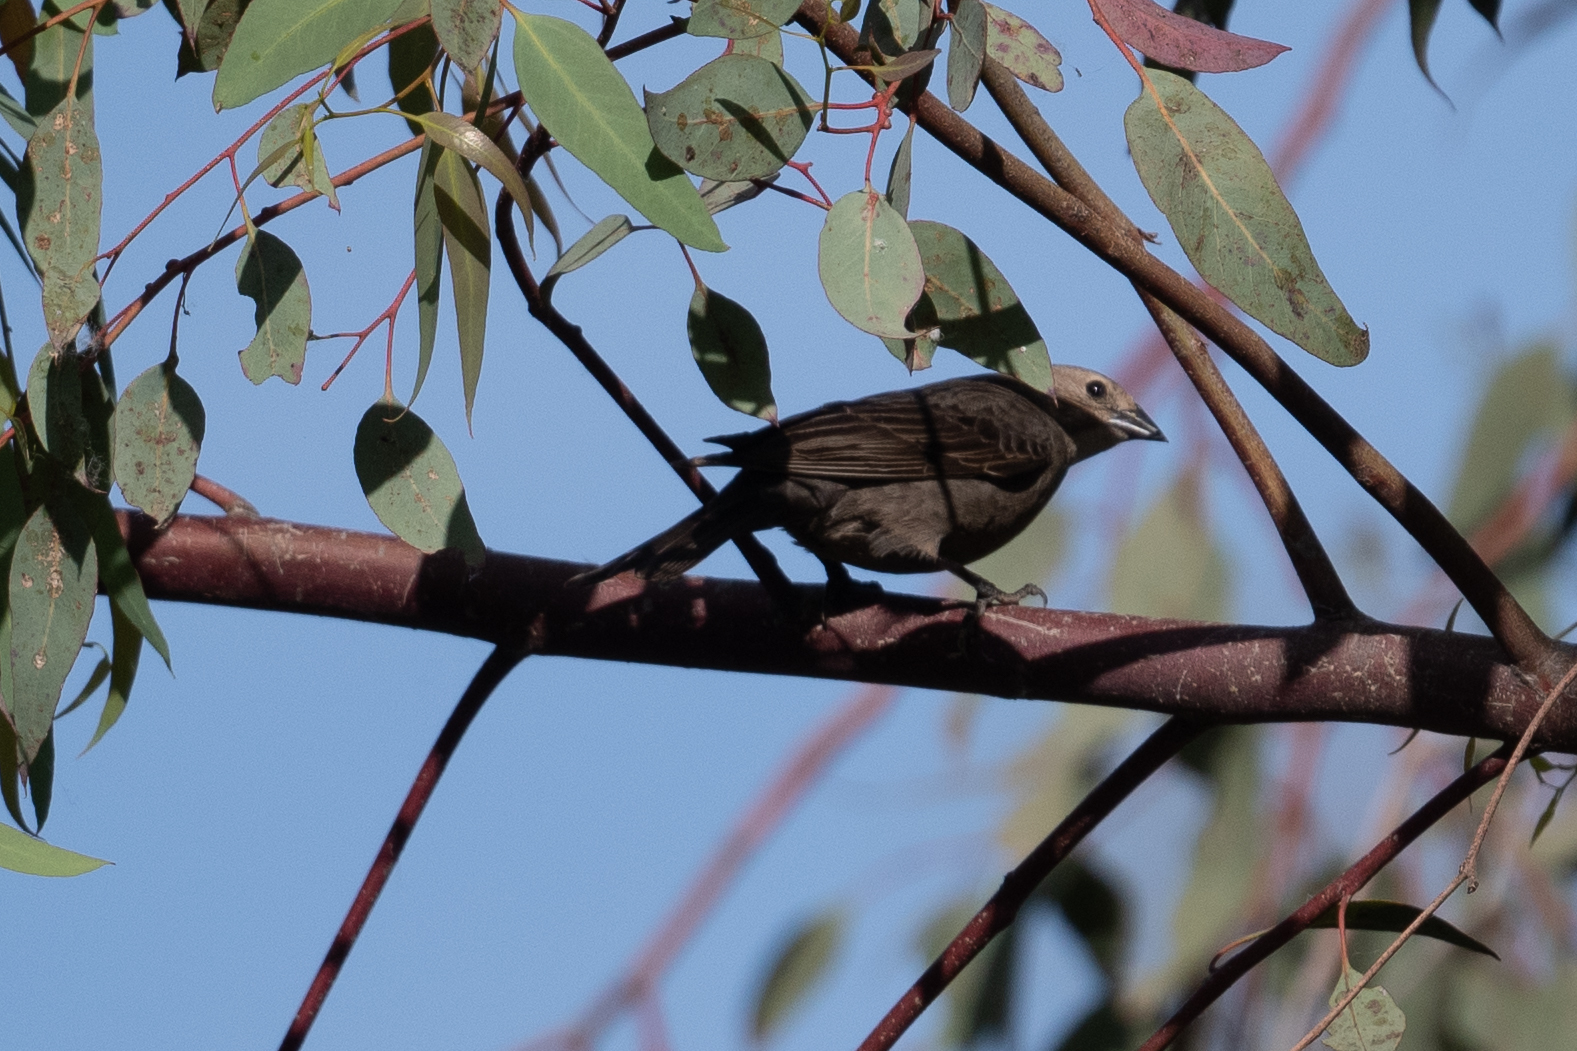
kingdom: Animalia
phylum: Chordata
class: Aves
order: Passeriformes
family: Icteridae
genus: Molothrus
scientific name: Molothrus ater
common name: Brown-headed cowbird
